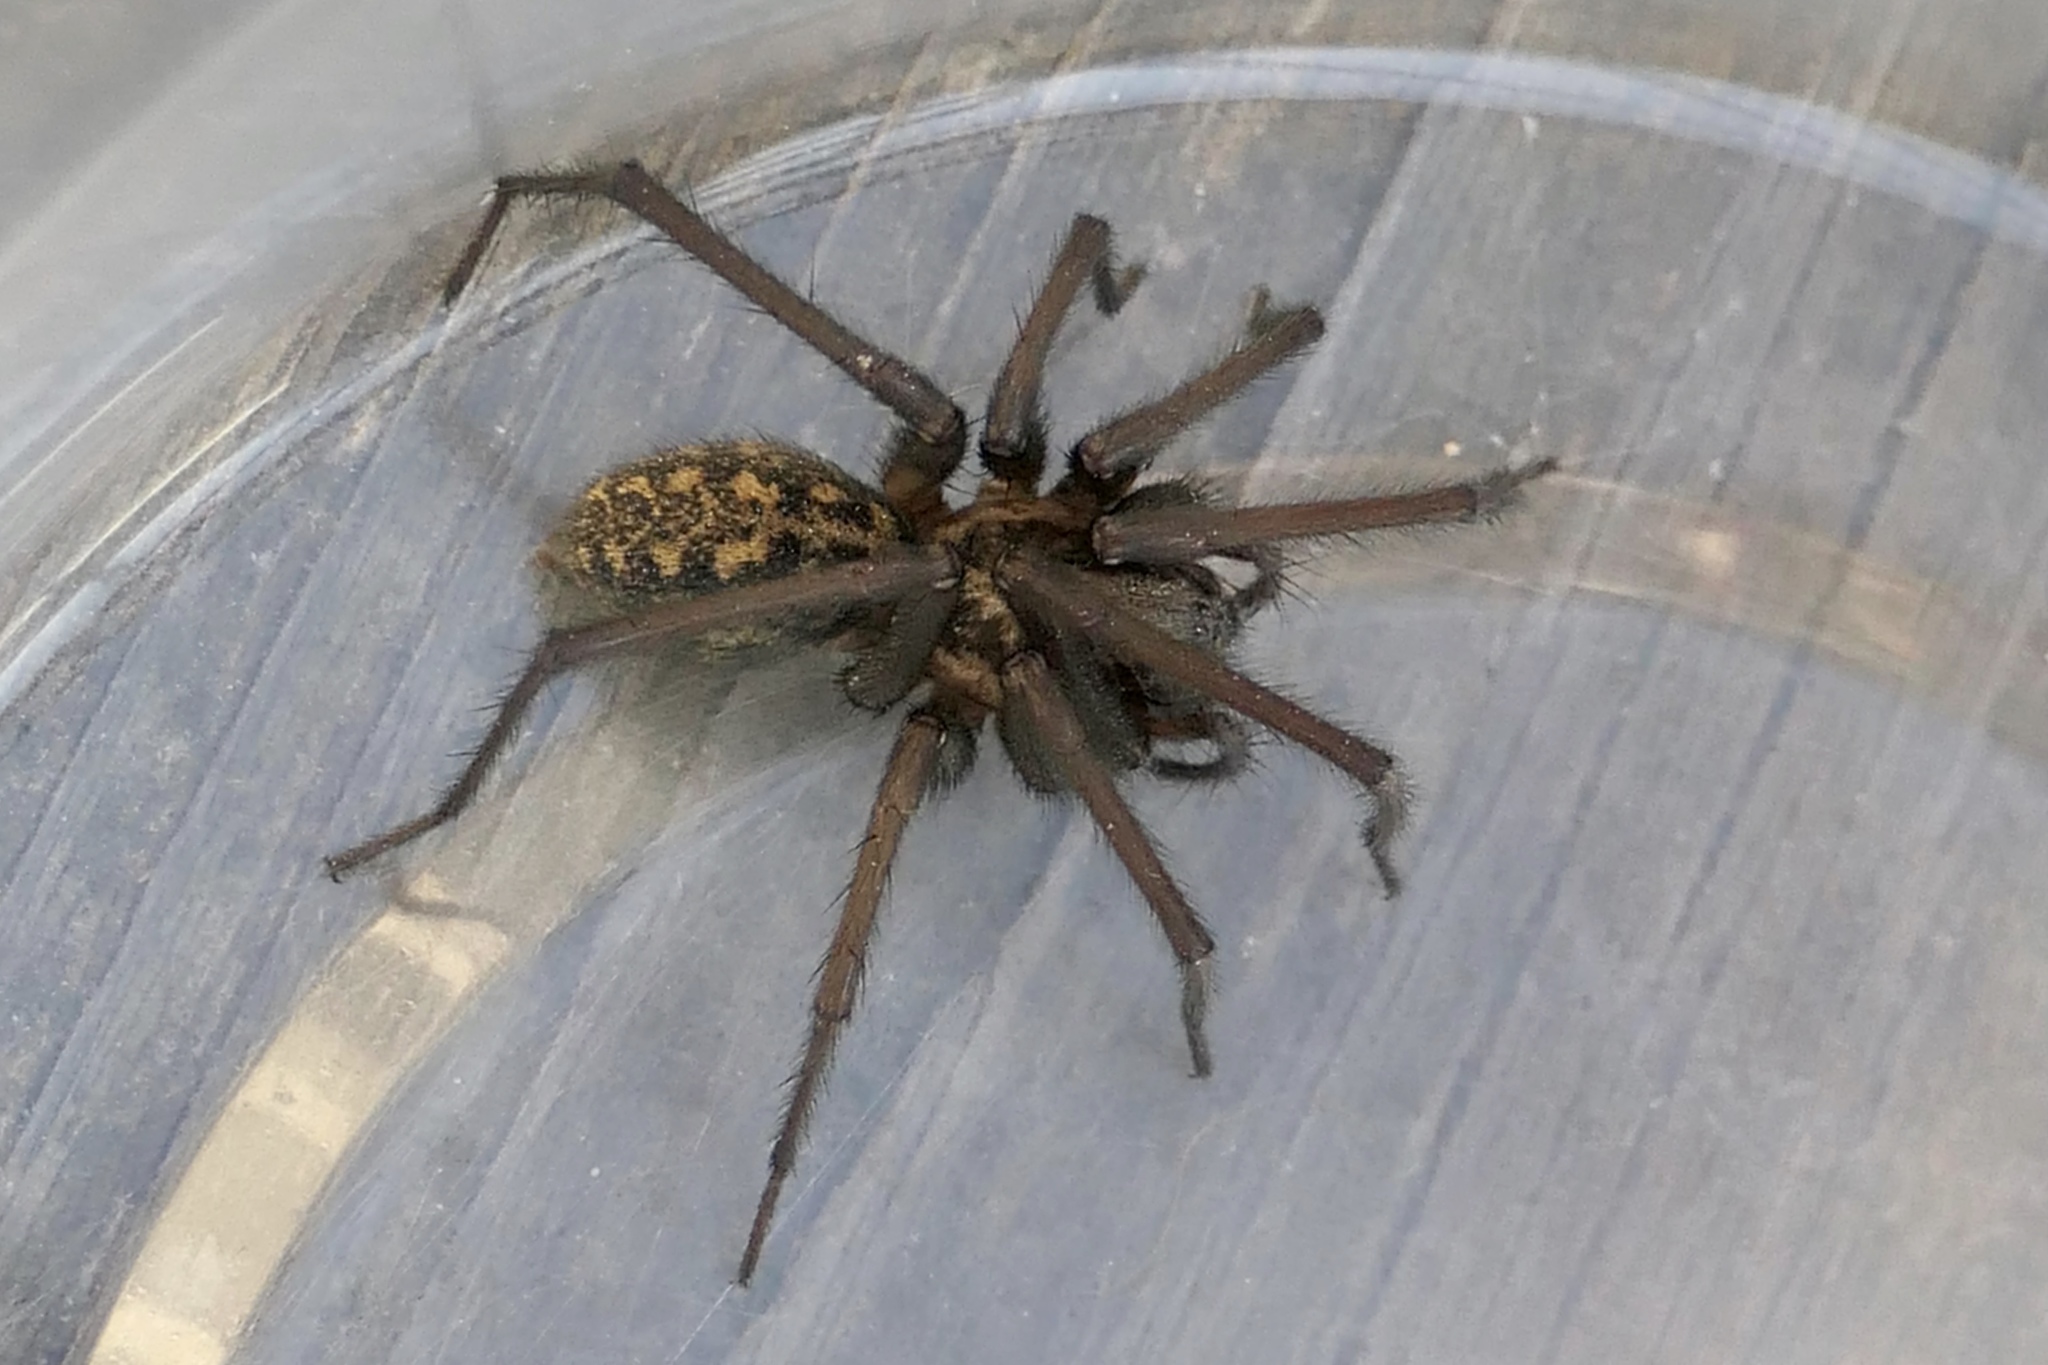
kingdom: Animalia
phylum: Arthropoda
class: Arachnida
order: Araneae
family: Agelenidae
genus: Eratigena
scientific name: Eratigena duellica
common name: Giant house spider
